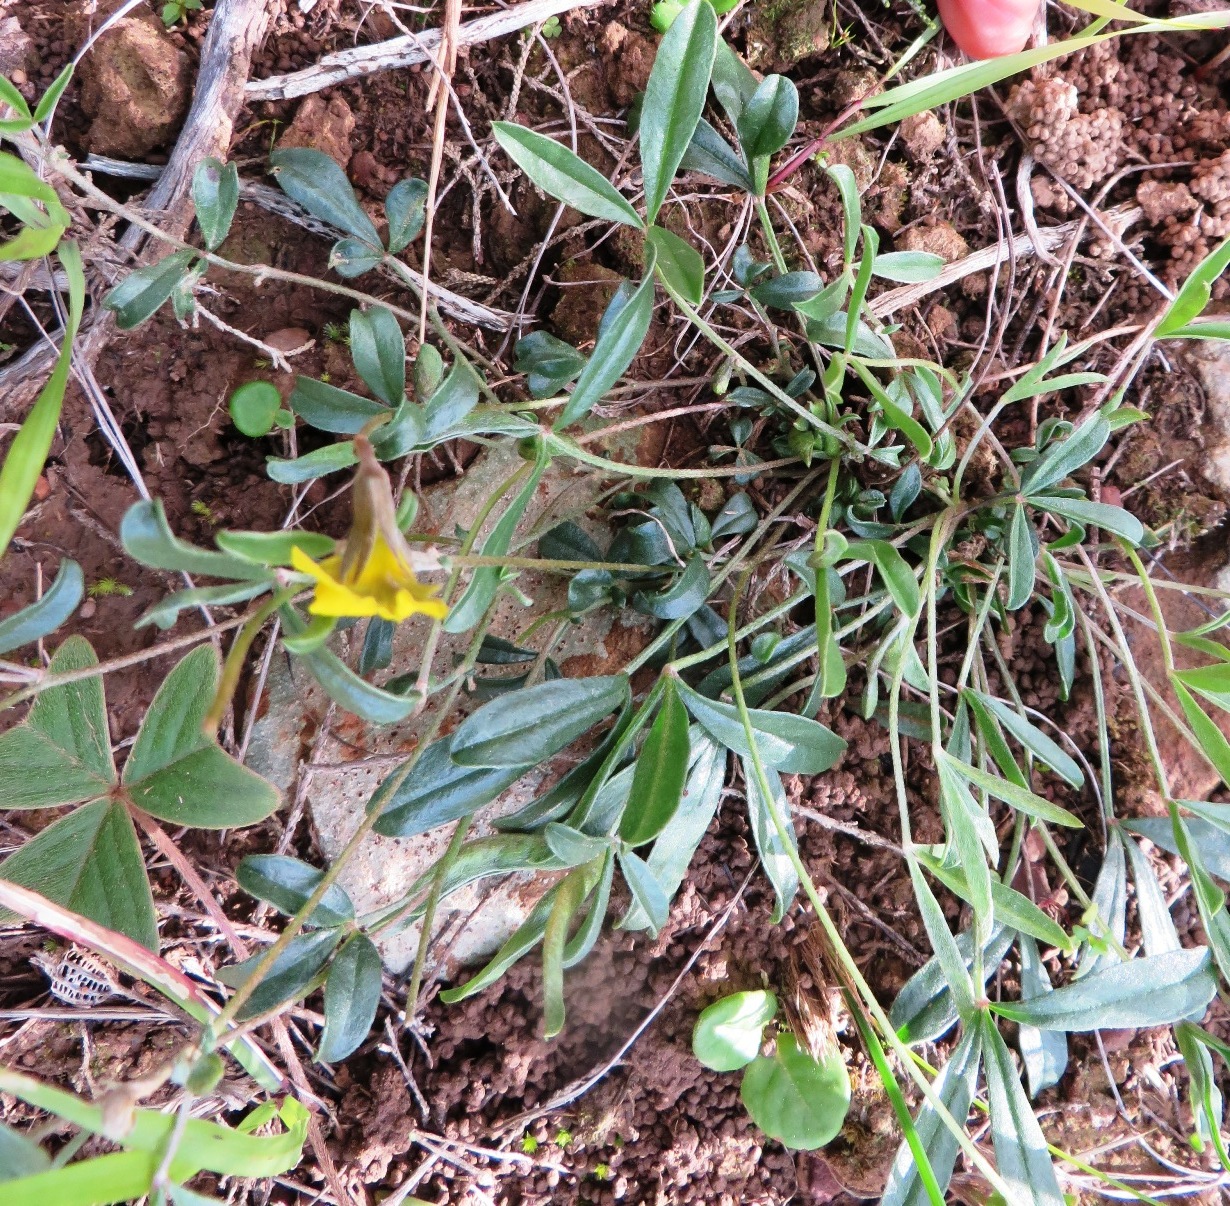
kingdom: Plantae
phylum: Tracheophyta
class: Magnoliopsida
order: Fabales
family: Fabaceae
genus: Lotononis
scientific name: Lotononis prostrata
